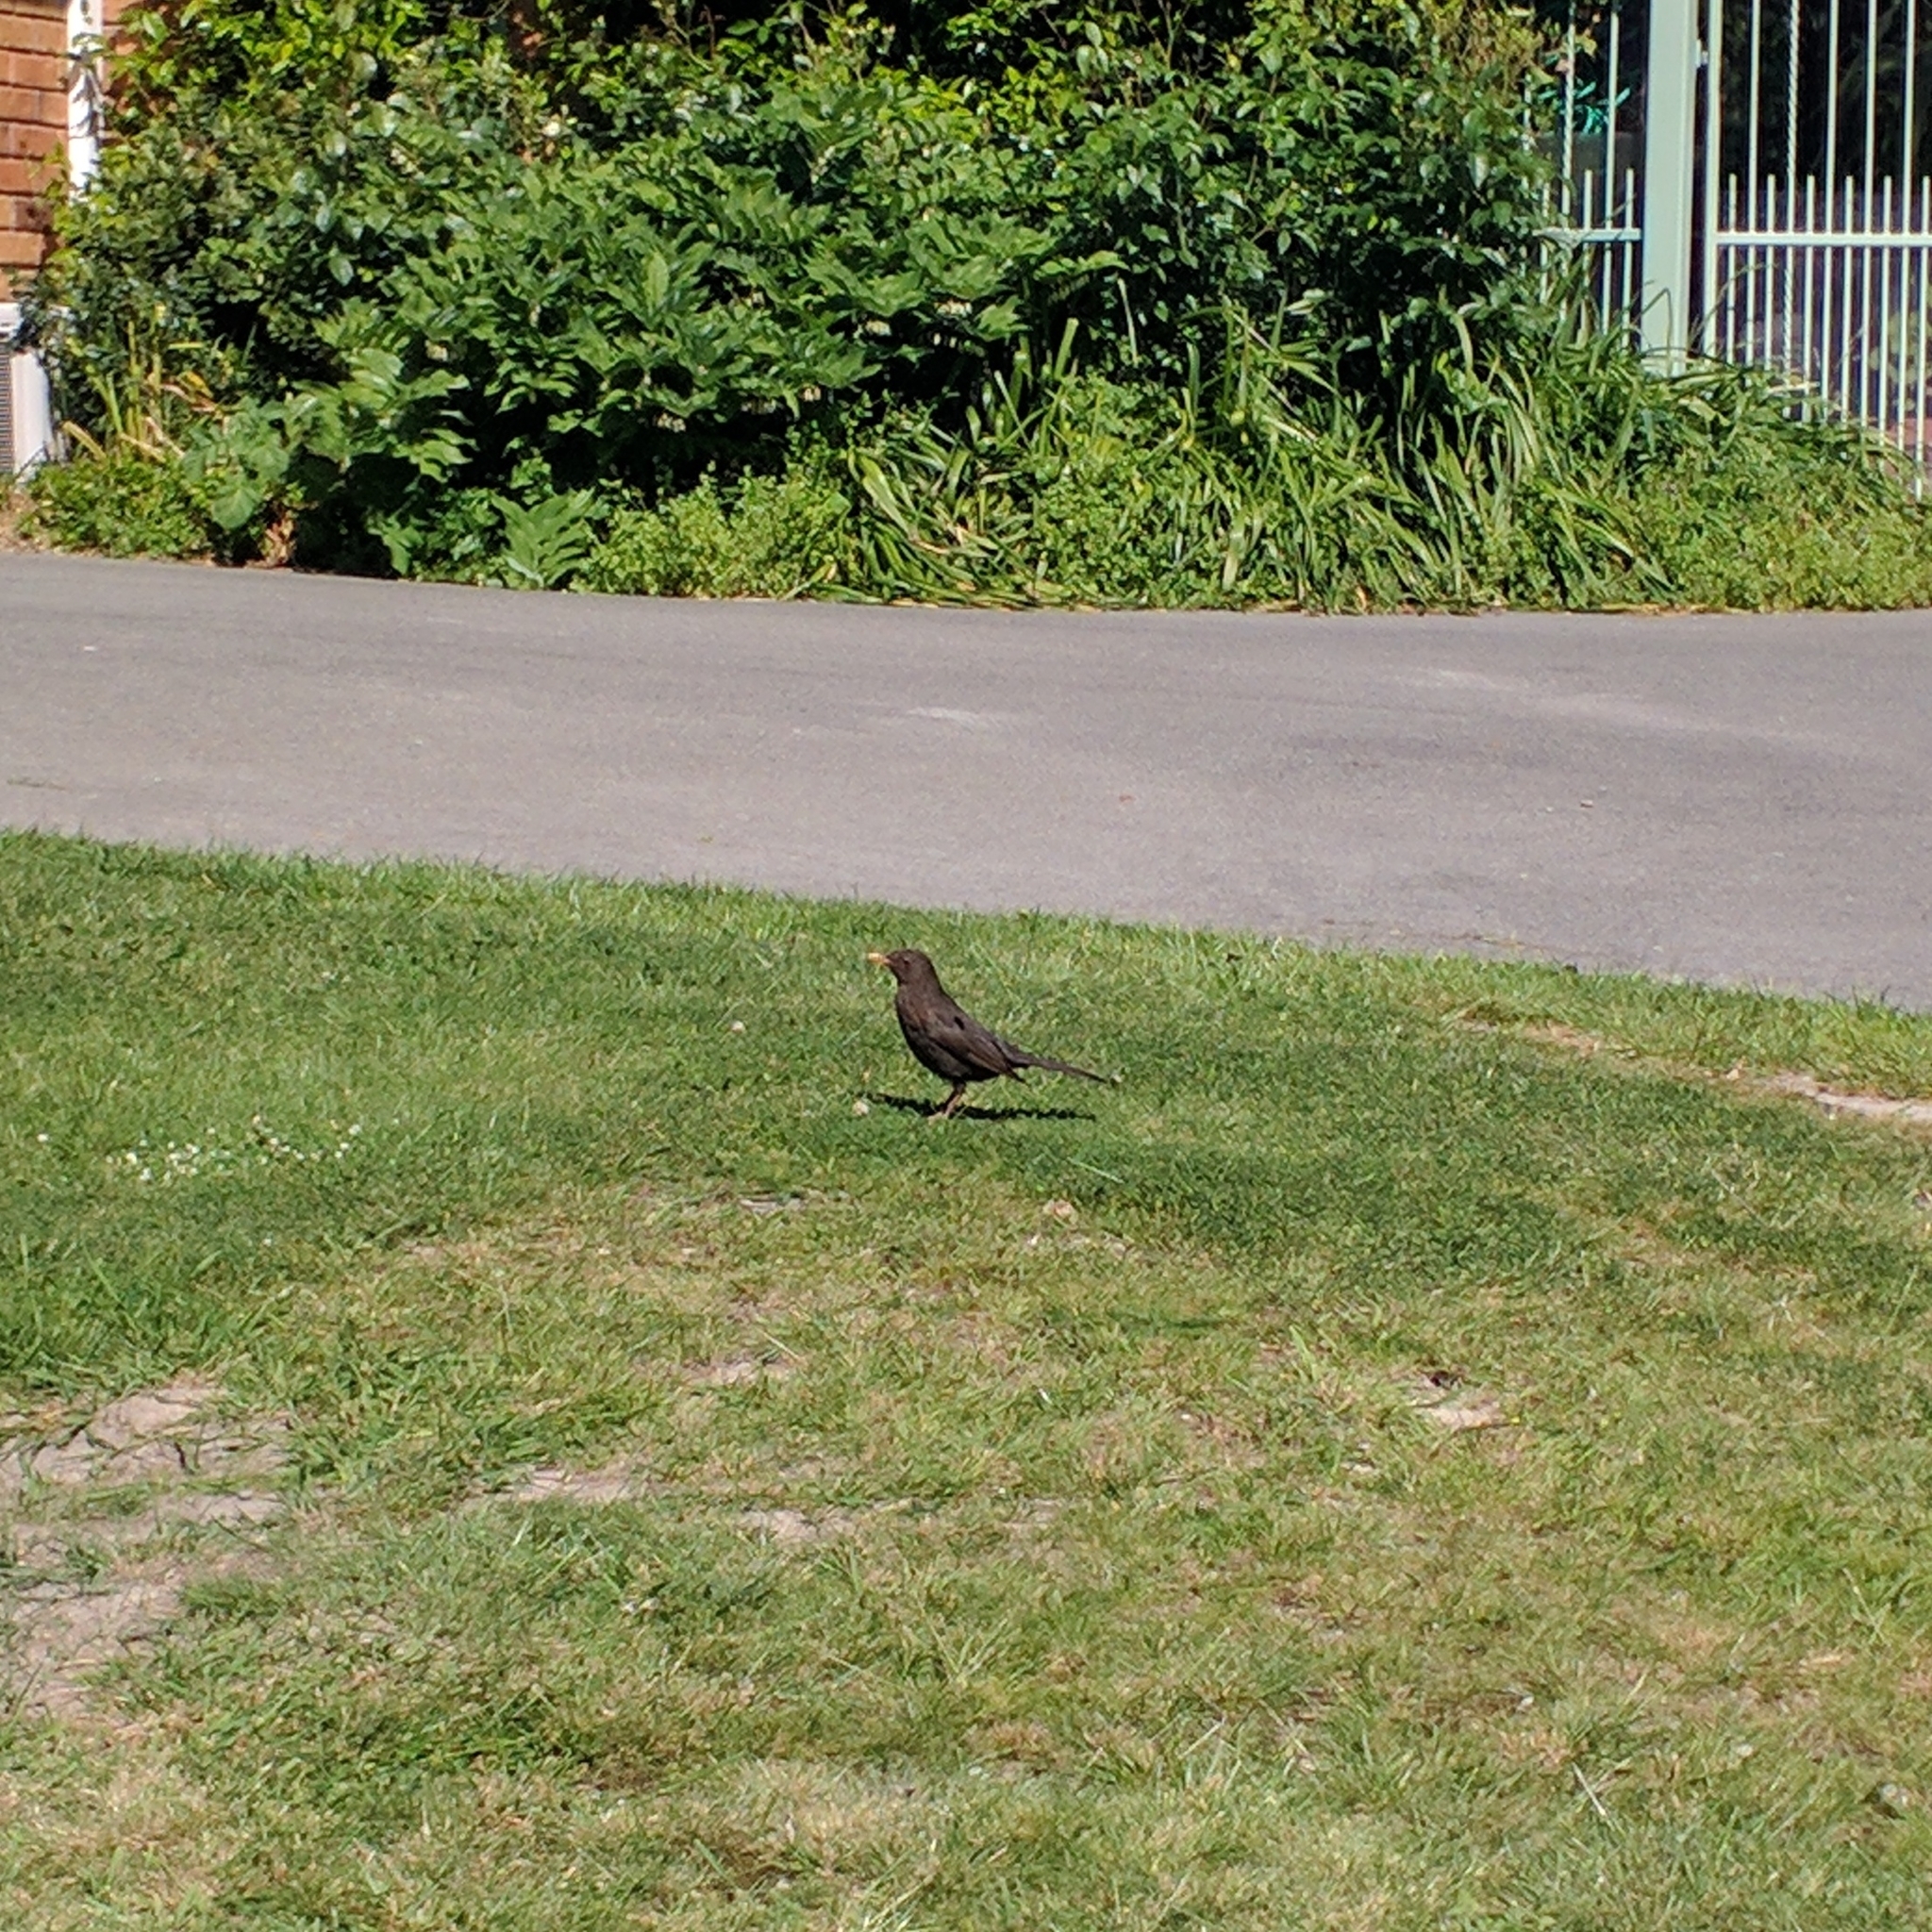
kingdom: Animalia
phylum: Chordata
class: Aves
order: Passeriformes
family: Turdidae
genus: Turdus
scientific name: Turdus merula
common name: Common blackbird
